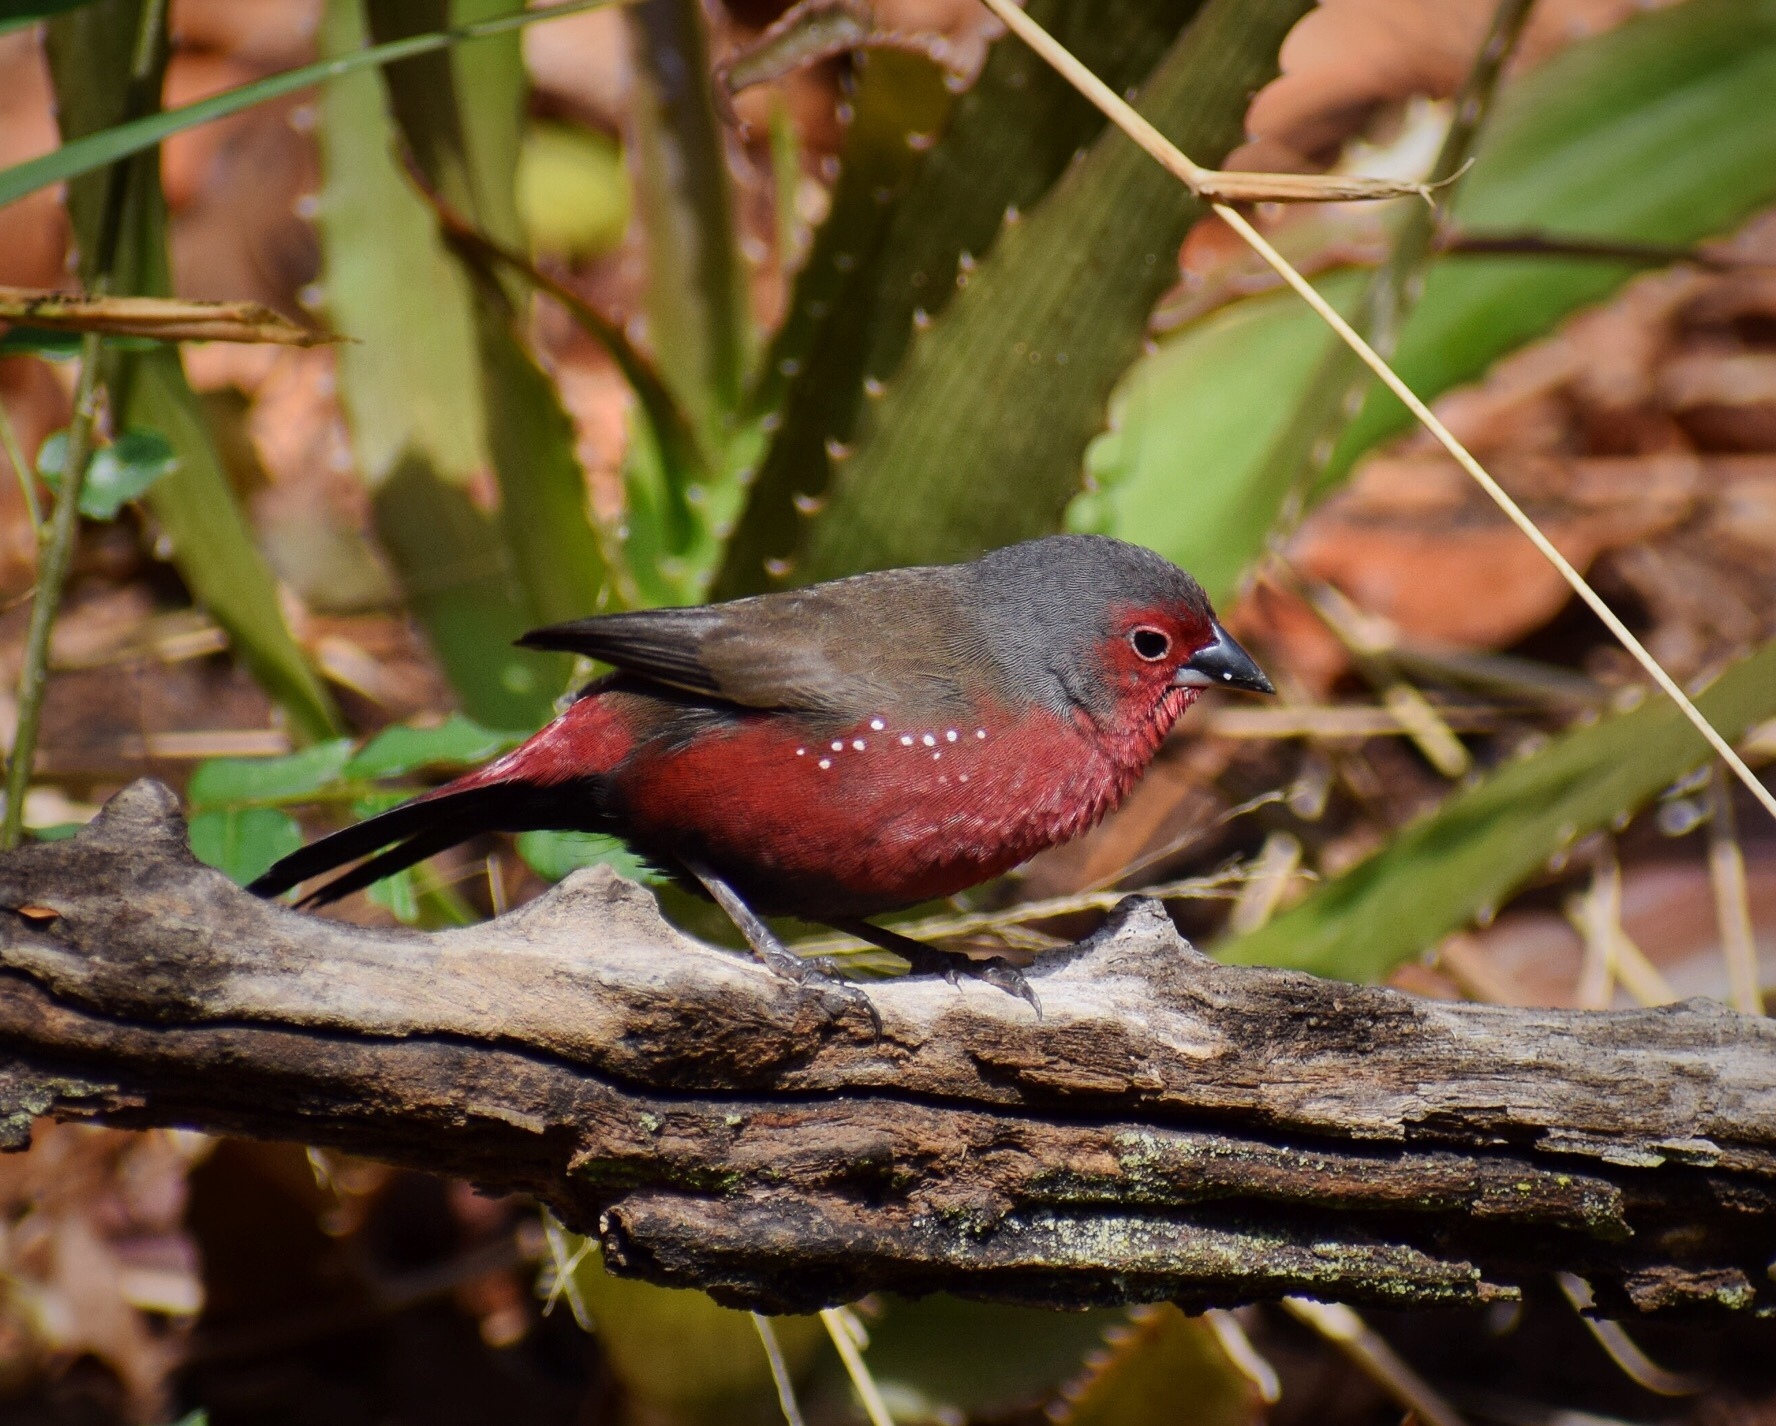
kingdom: Animalia
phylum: Chordata
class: Aves
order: Passeriformes
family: Estrildidae
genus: Lagonosticta
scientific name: Lagonosticta rubricata
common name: African firefinch
